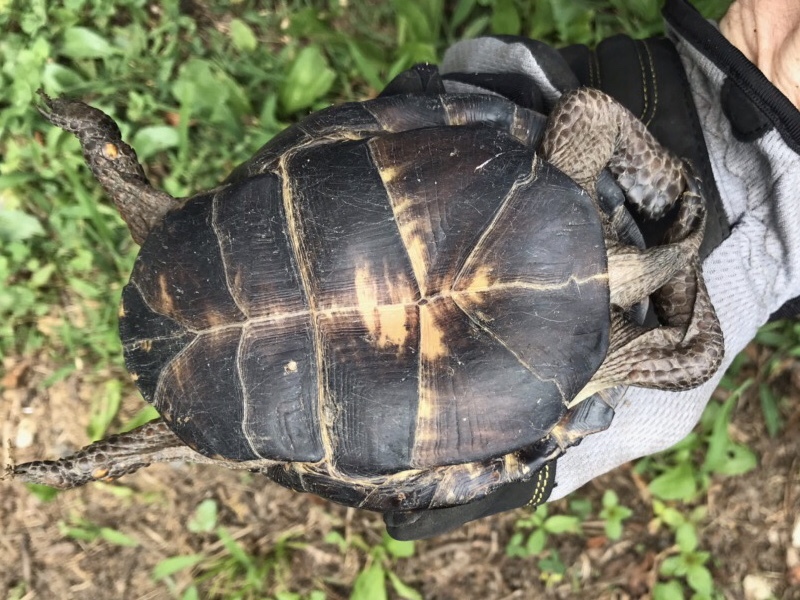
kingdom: Animalia
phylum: Chordata
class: Testudines
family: Emydidae
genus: Terrapene
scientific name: Terrapene carolina
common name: Common box turtle
